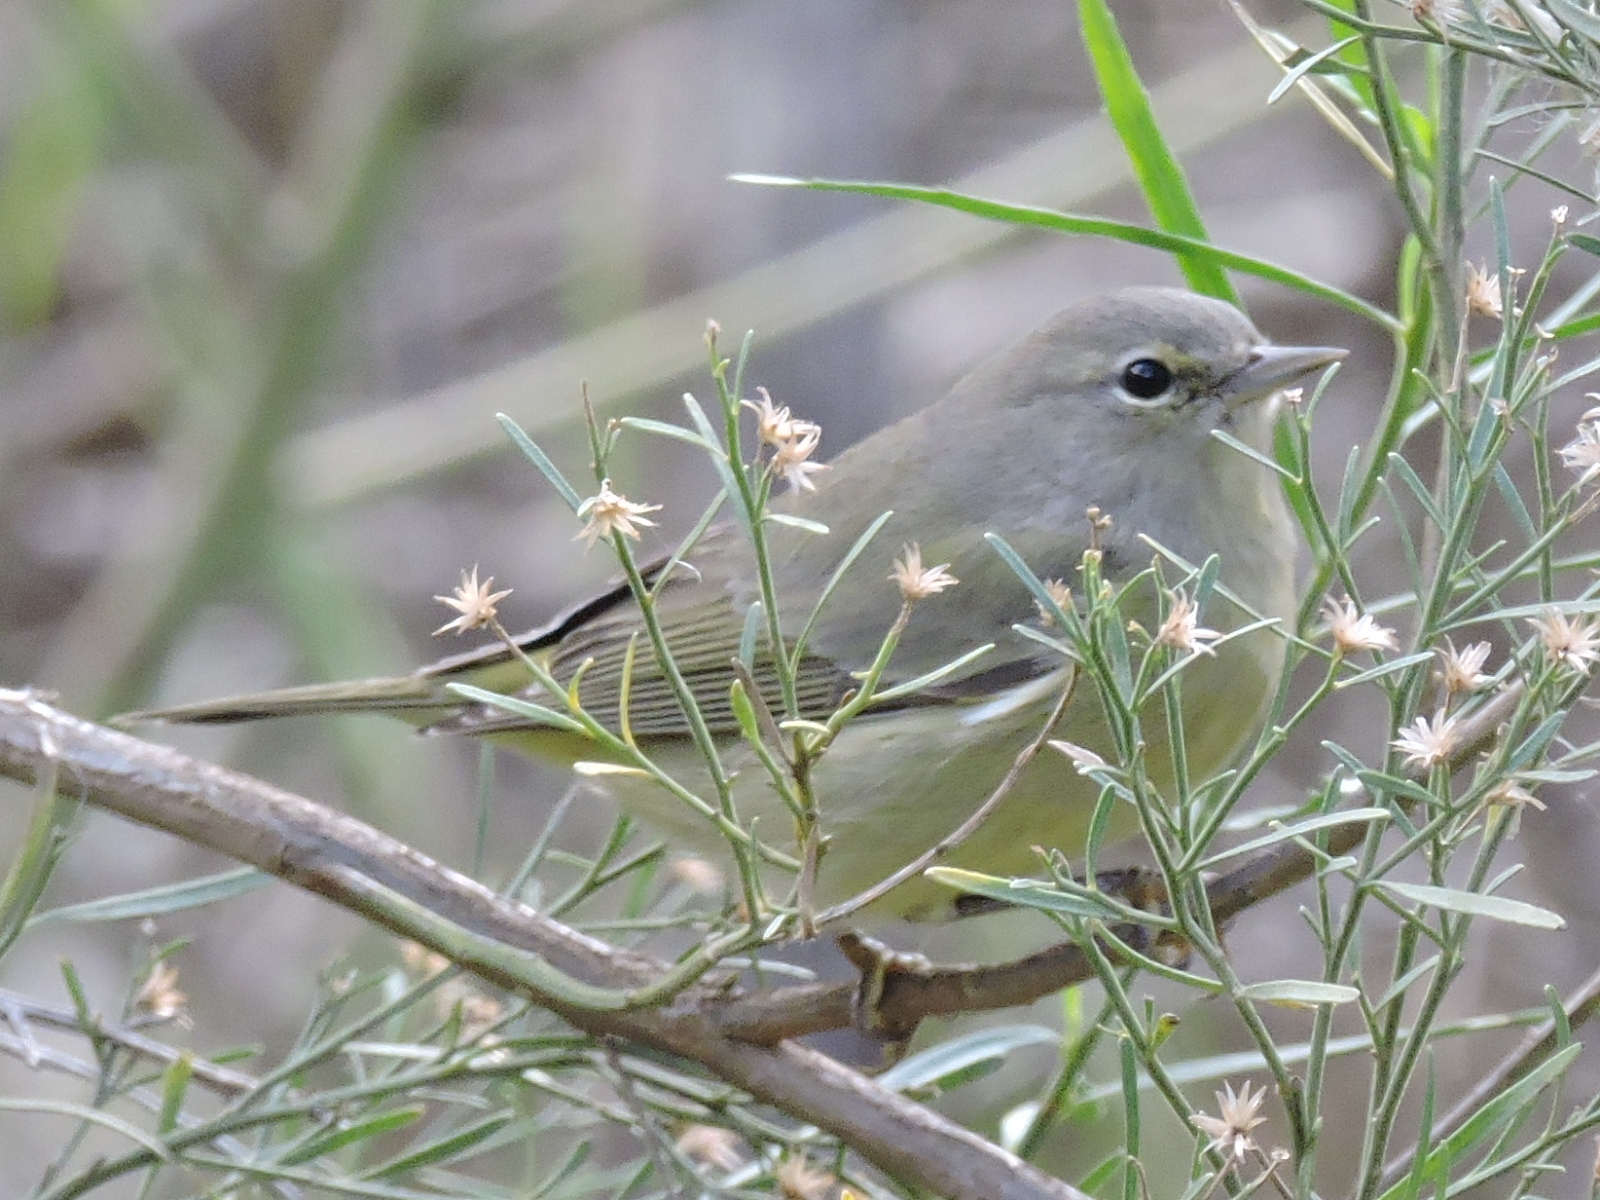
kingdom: Animalia
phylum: Chordata
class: Aves
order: Passeriformes
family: Parulidae
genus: Leiothlypis
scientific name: Leiothlypis celata
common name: Orange-crowned warbler
